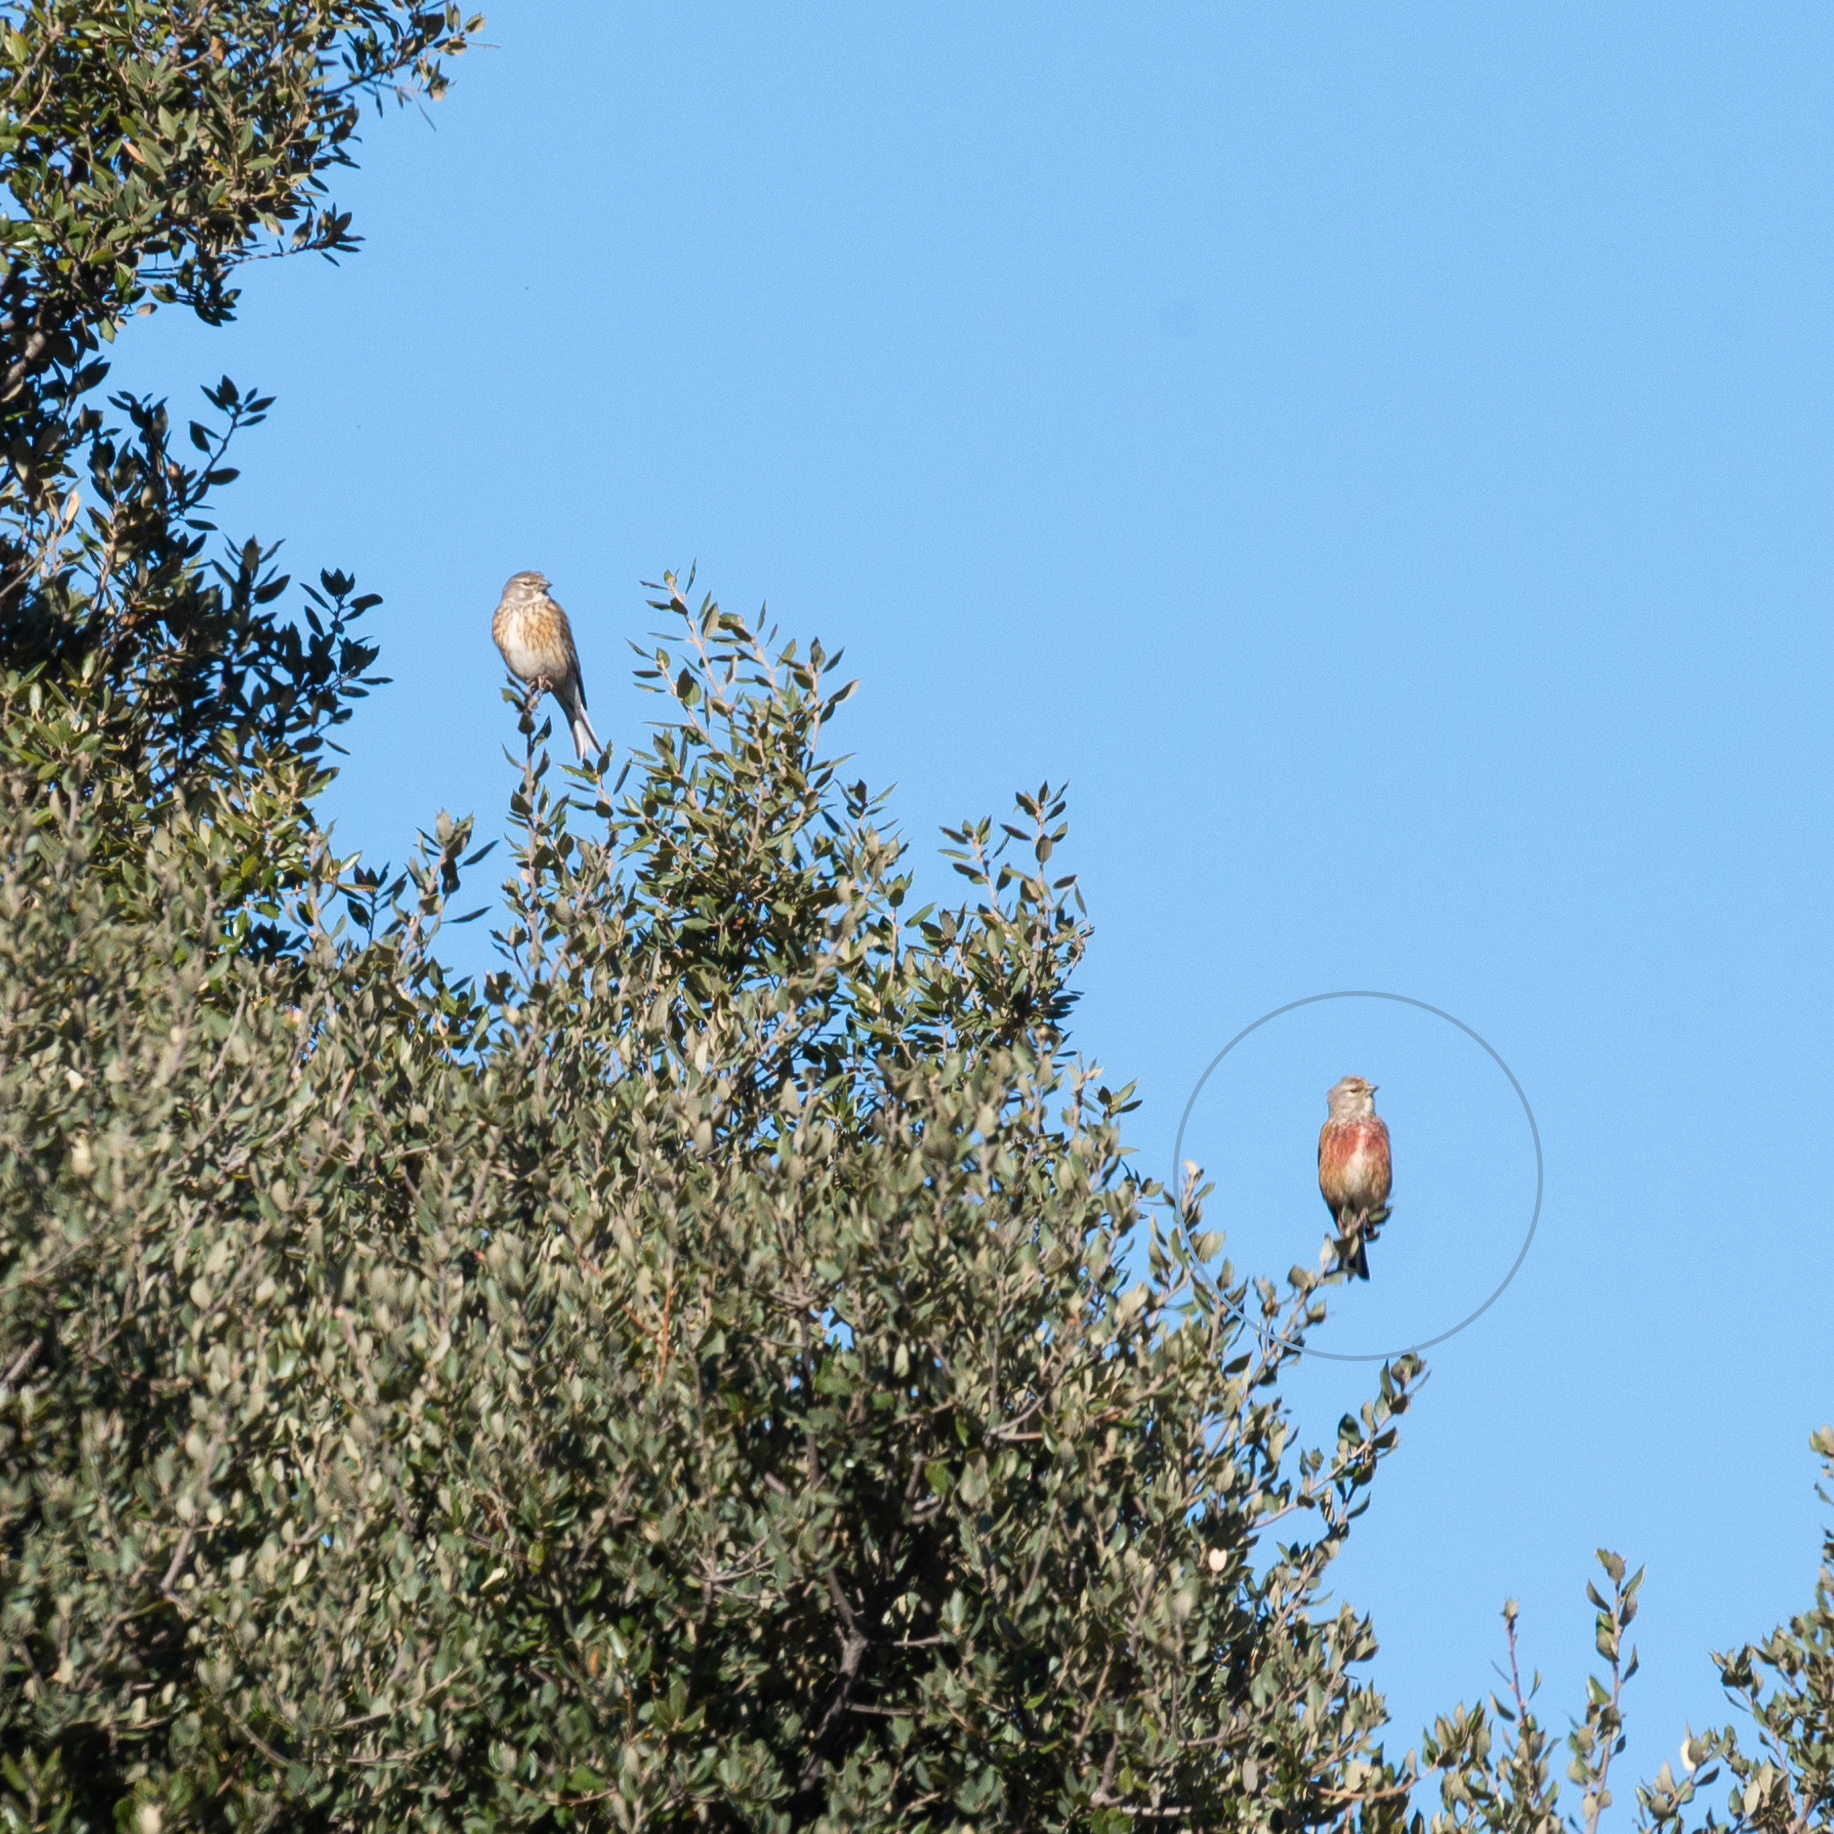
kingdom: Animalia
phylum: Chordata
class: Aves
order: Passeriformes
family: Fringillidae
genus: Linaria
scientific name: Linaria cannabina
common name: Common linnet
